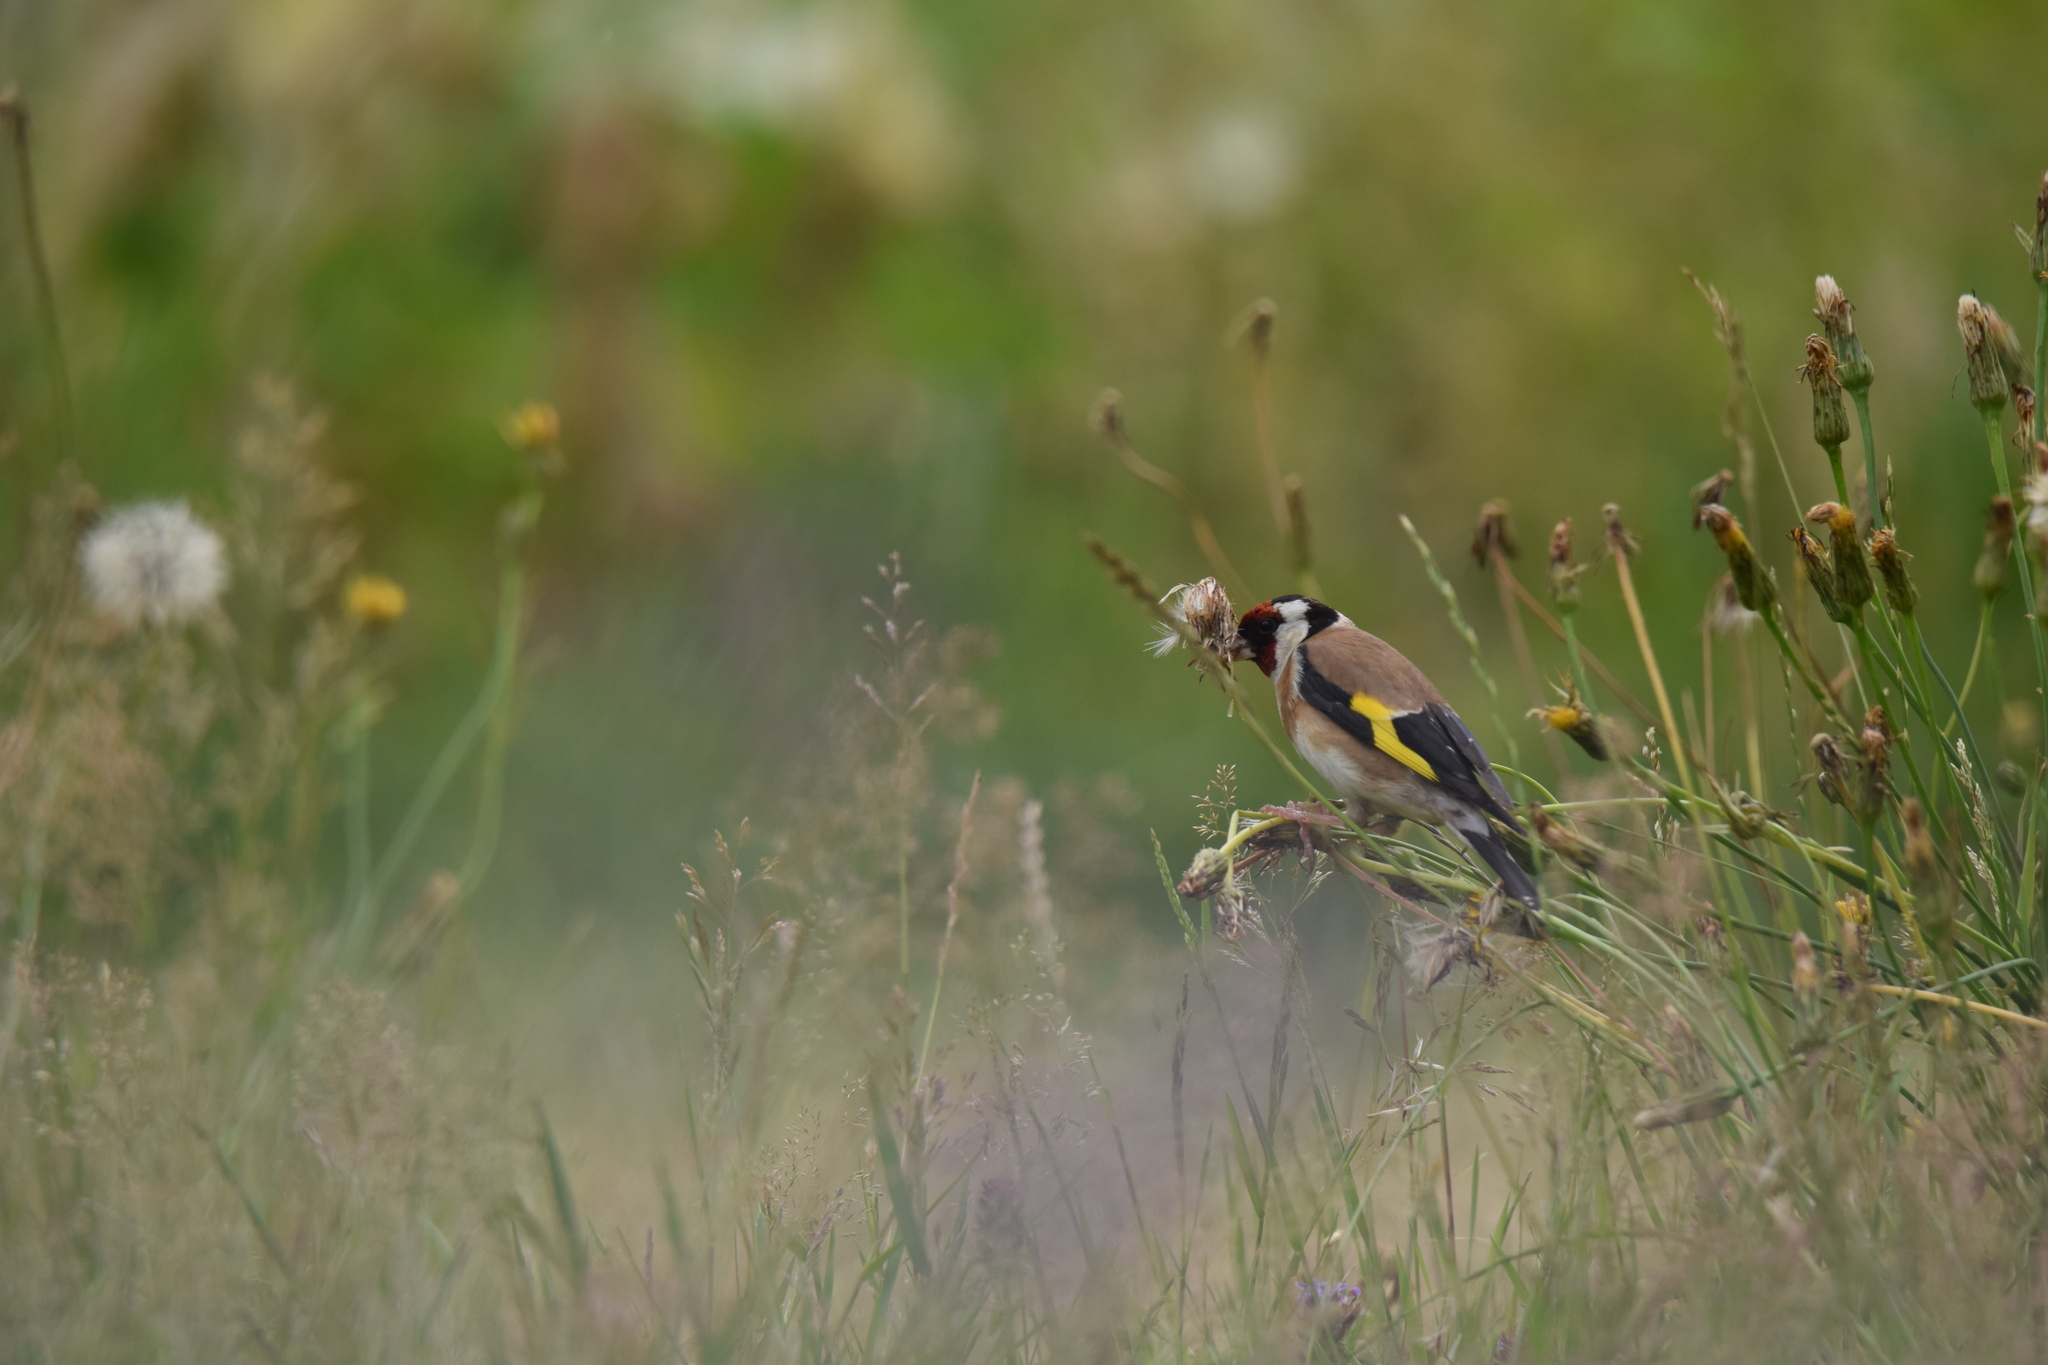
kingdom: Animalia
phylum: Chordata
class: Aves
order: Passeriformes
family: Fringillidae
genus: Carduelis
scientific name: Carduelis carduelis
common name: European goldfinch
